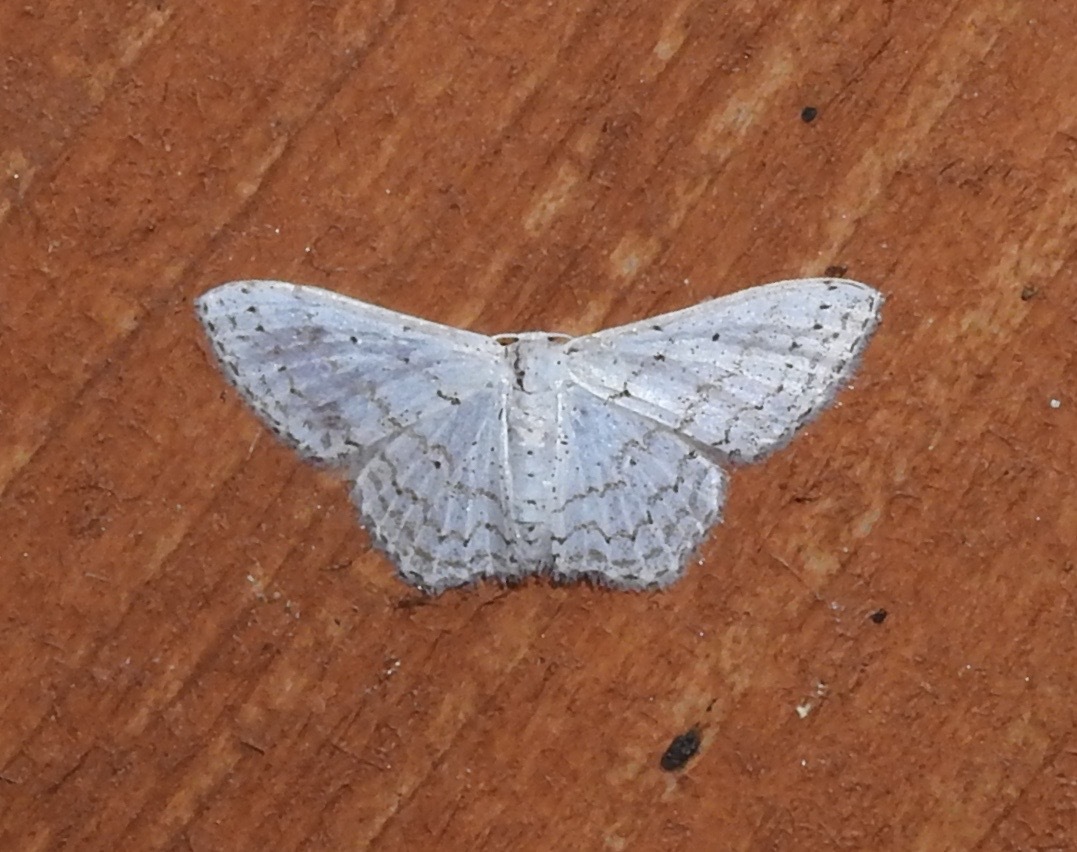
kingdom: Animalia
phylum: Arthropoda
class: Insecta
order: Lepidoptera
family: Geometridae
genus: Idaea
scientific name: Idaea tacturata
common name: Dot-lined wave
